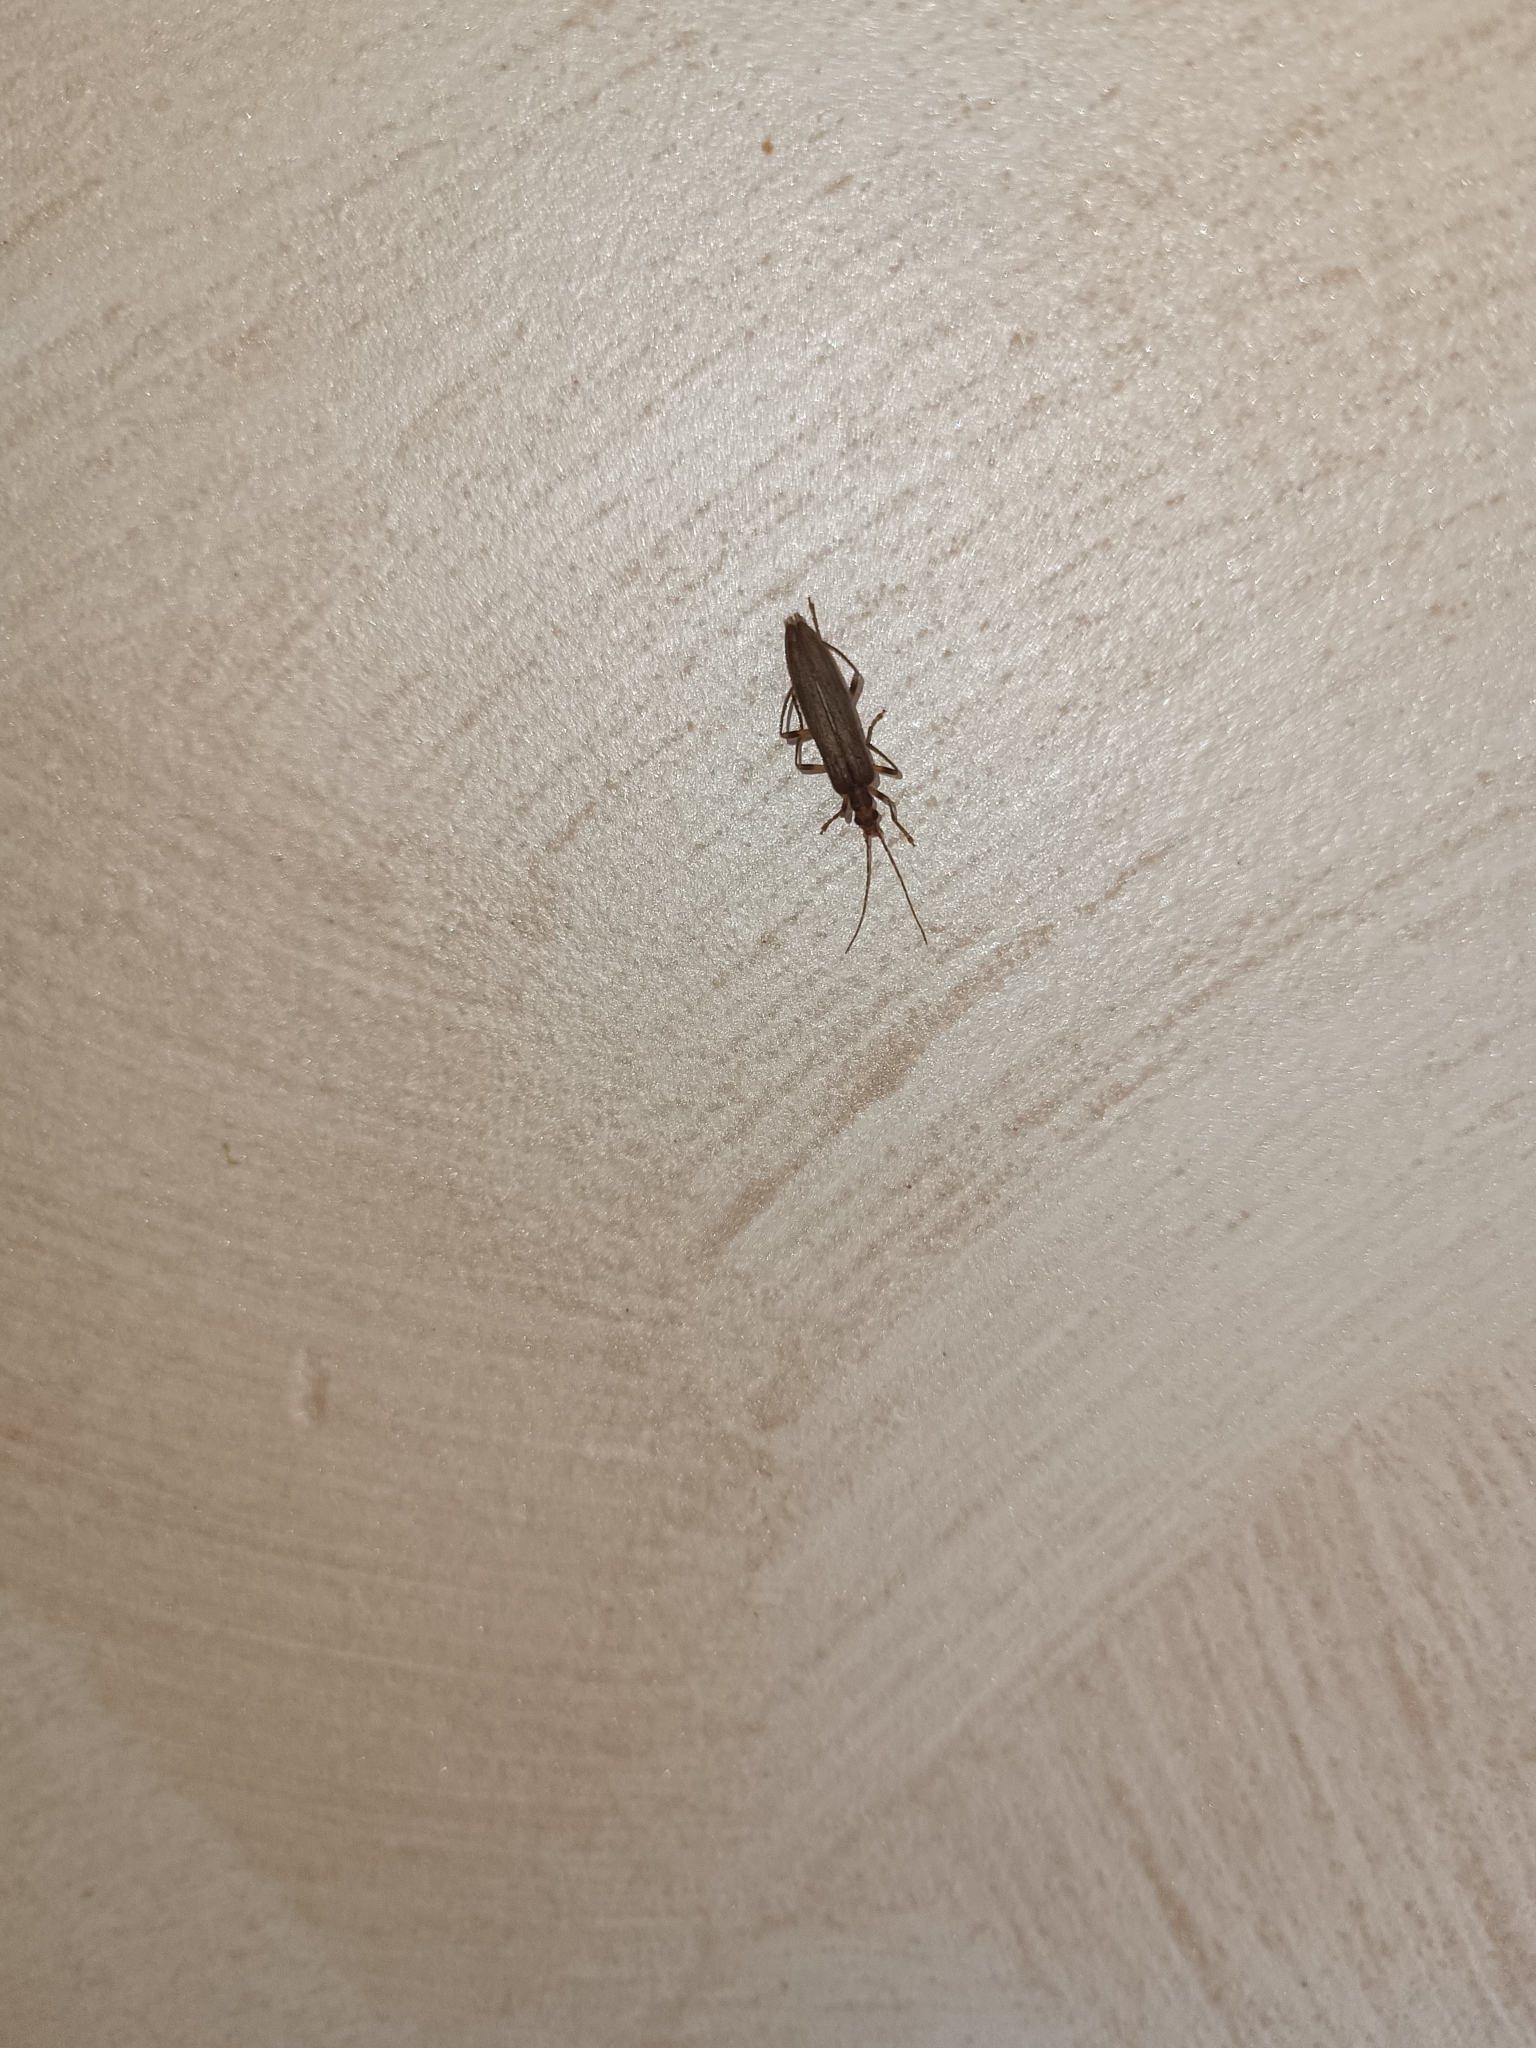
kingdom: Animalia
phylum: Arthropoda
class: Insecta
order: Coleoptera
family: Oedemeridae
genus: Oedemera
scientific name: Oedemera femoralis
